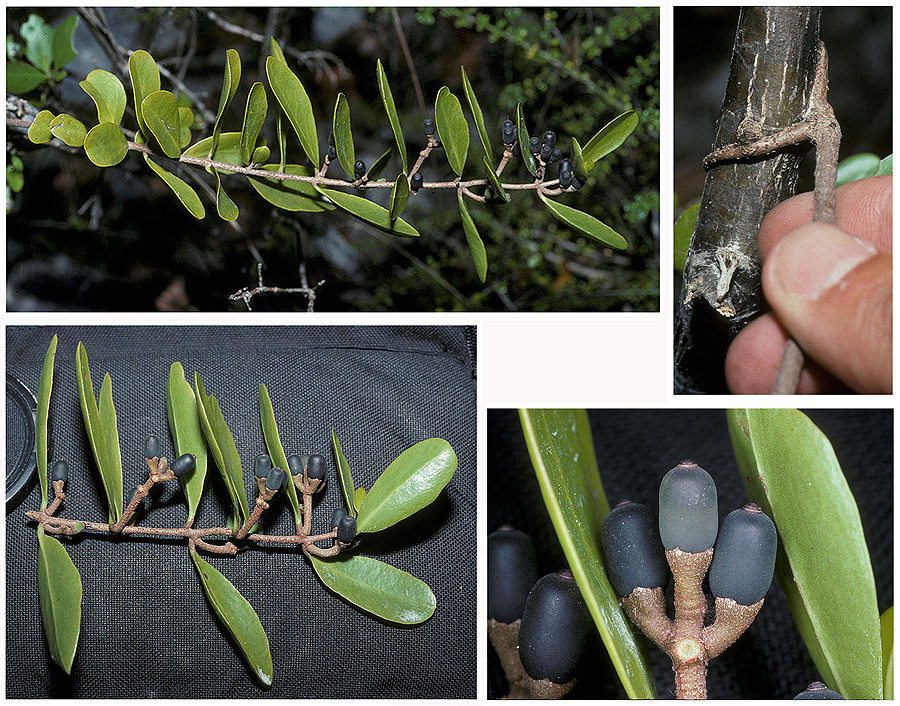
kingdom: Plantae
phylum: Tracheophyta
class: Magnoliopsida
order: Santalales
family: Loranthaceae
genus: Dendropemon
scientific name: Dendropemon confertiflorus
